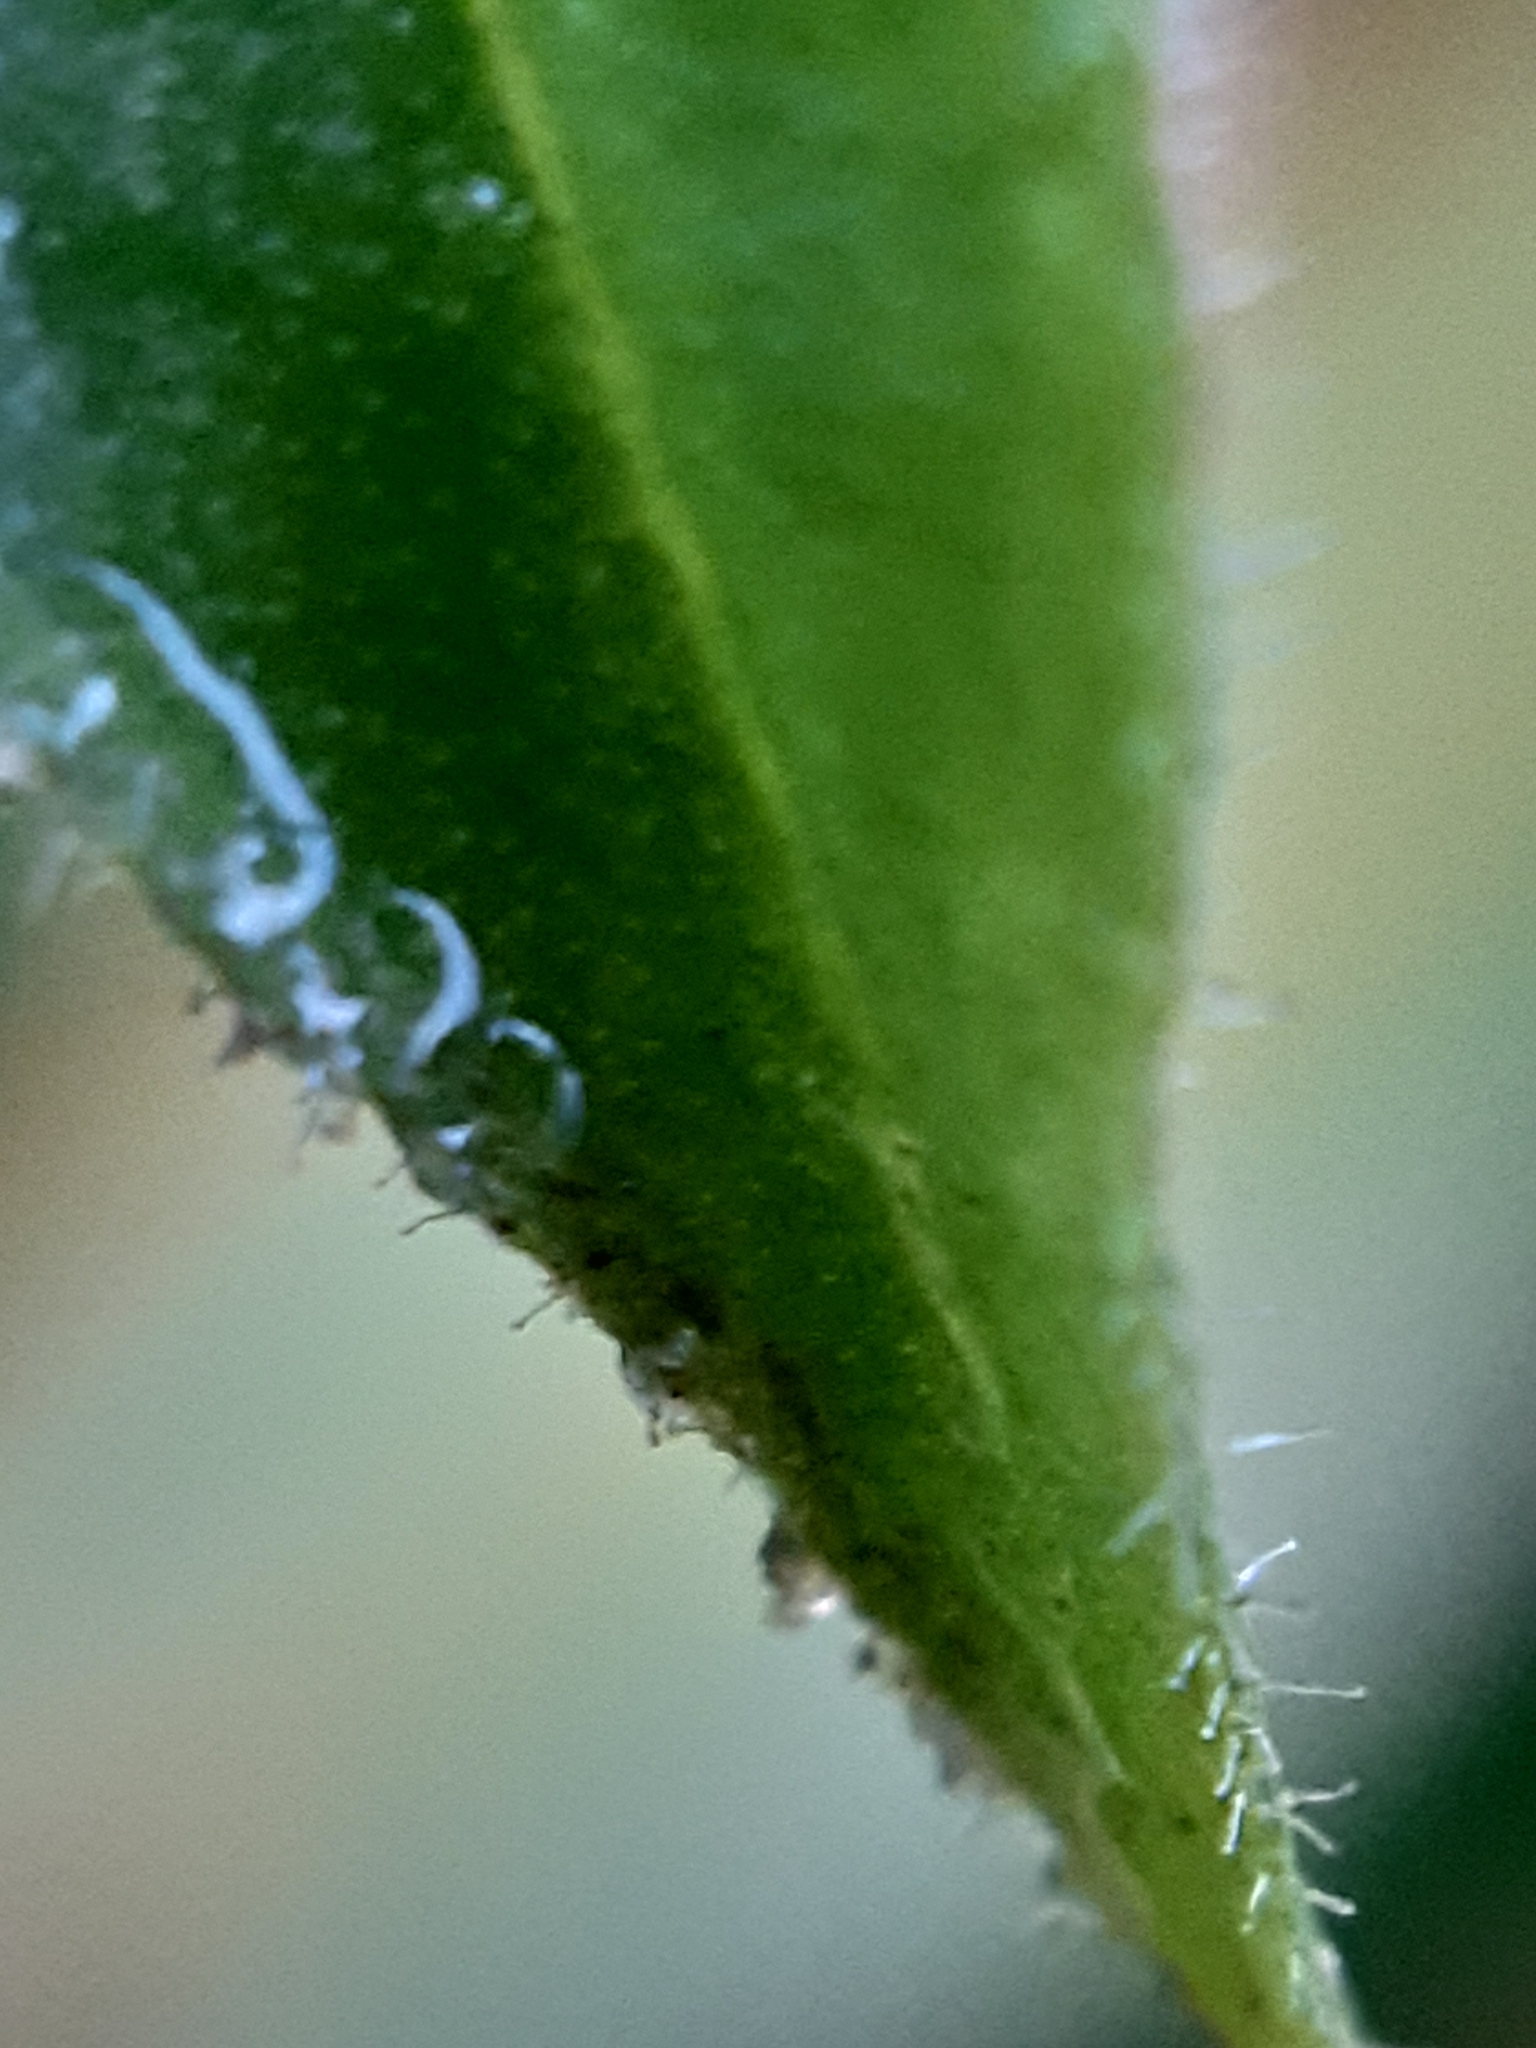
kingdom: Plantae
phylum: Tracheophyta
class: Magnoliopsida
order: Caryophyllales
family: Caryophyllaceae
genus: Stellaria
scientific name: Stellaria aquatica
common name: Water chickweed
